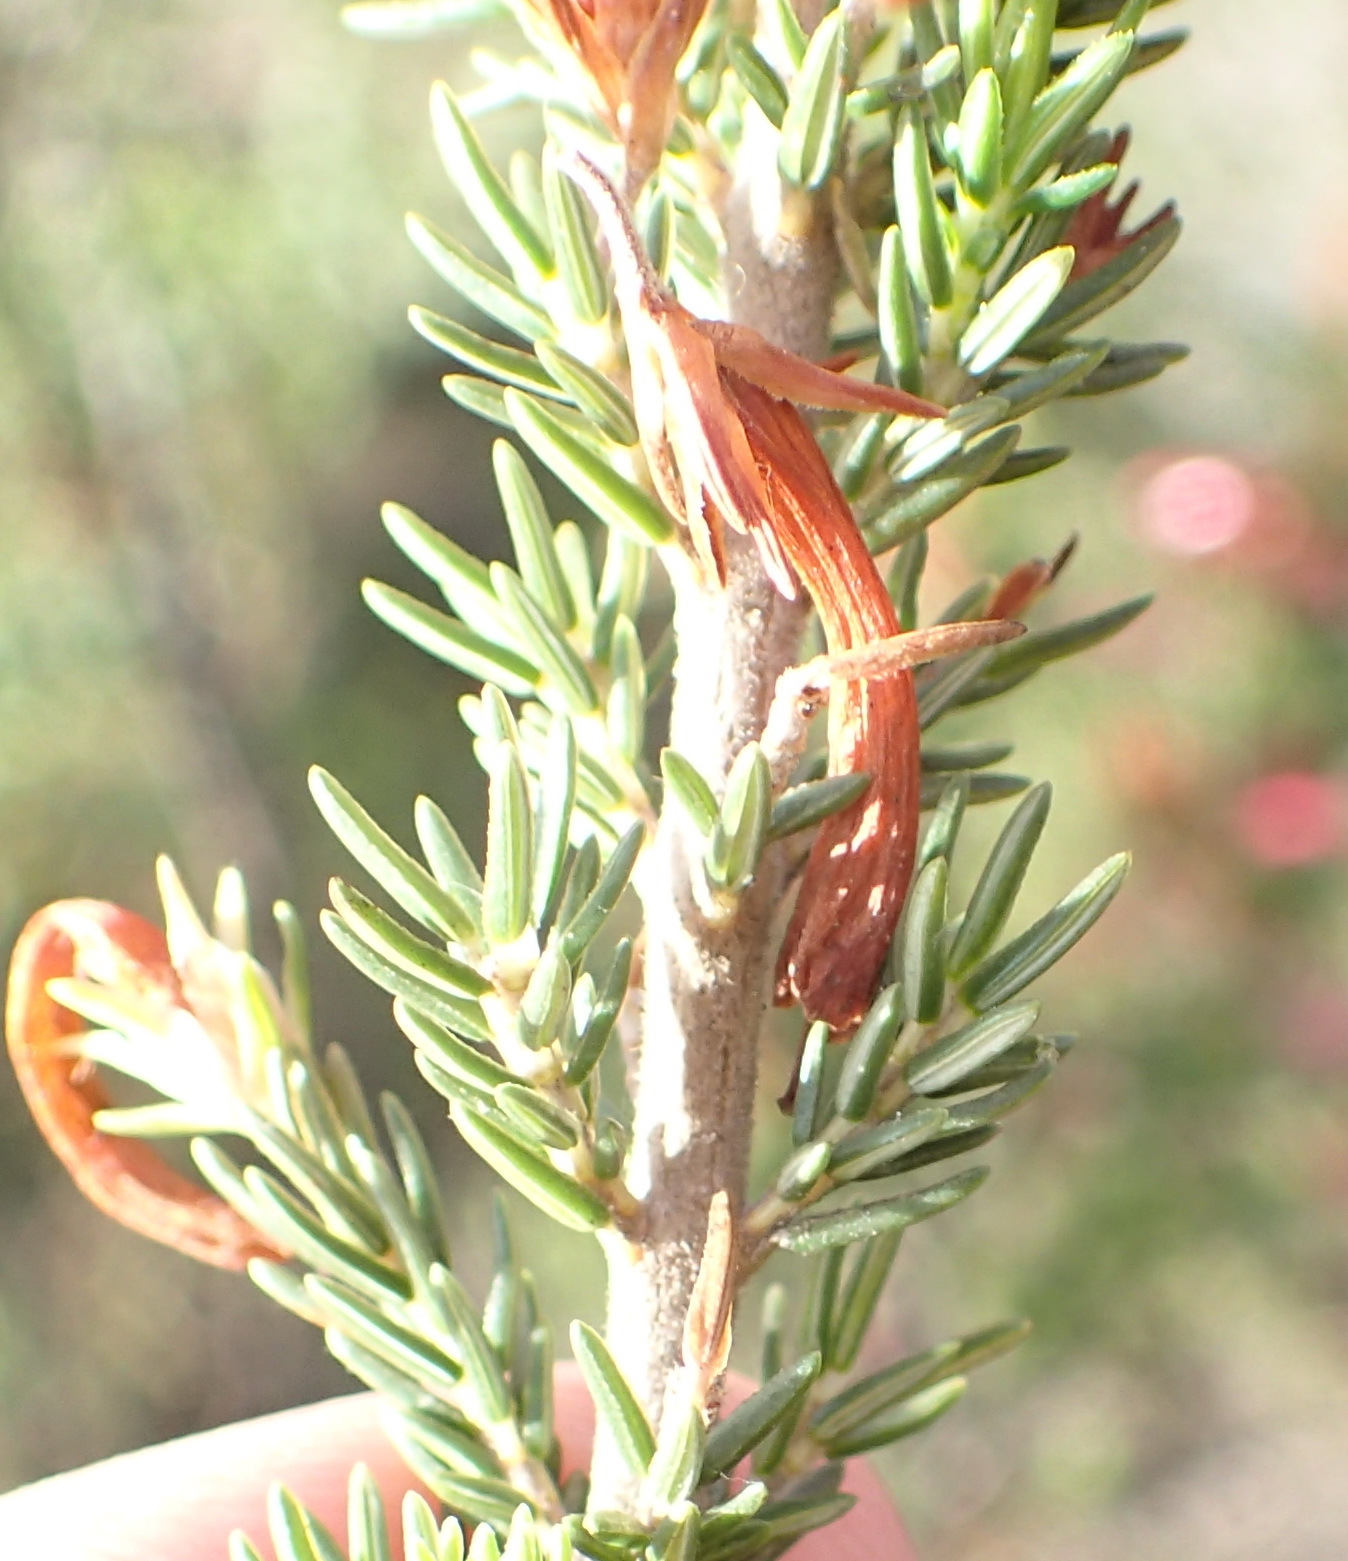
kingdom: Plantae
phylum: Tracheophyta
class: Magnoliopsida
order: Ericales
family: Ericaceae
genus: Erica
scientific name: Erica discolor
